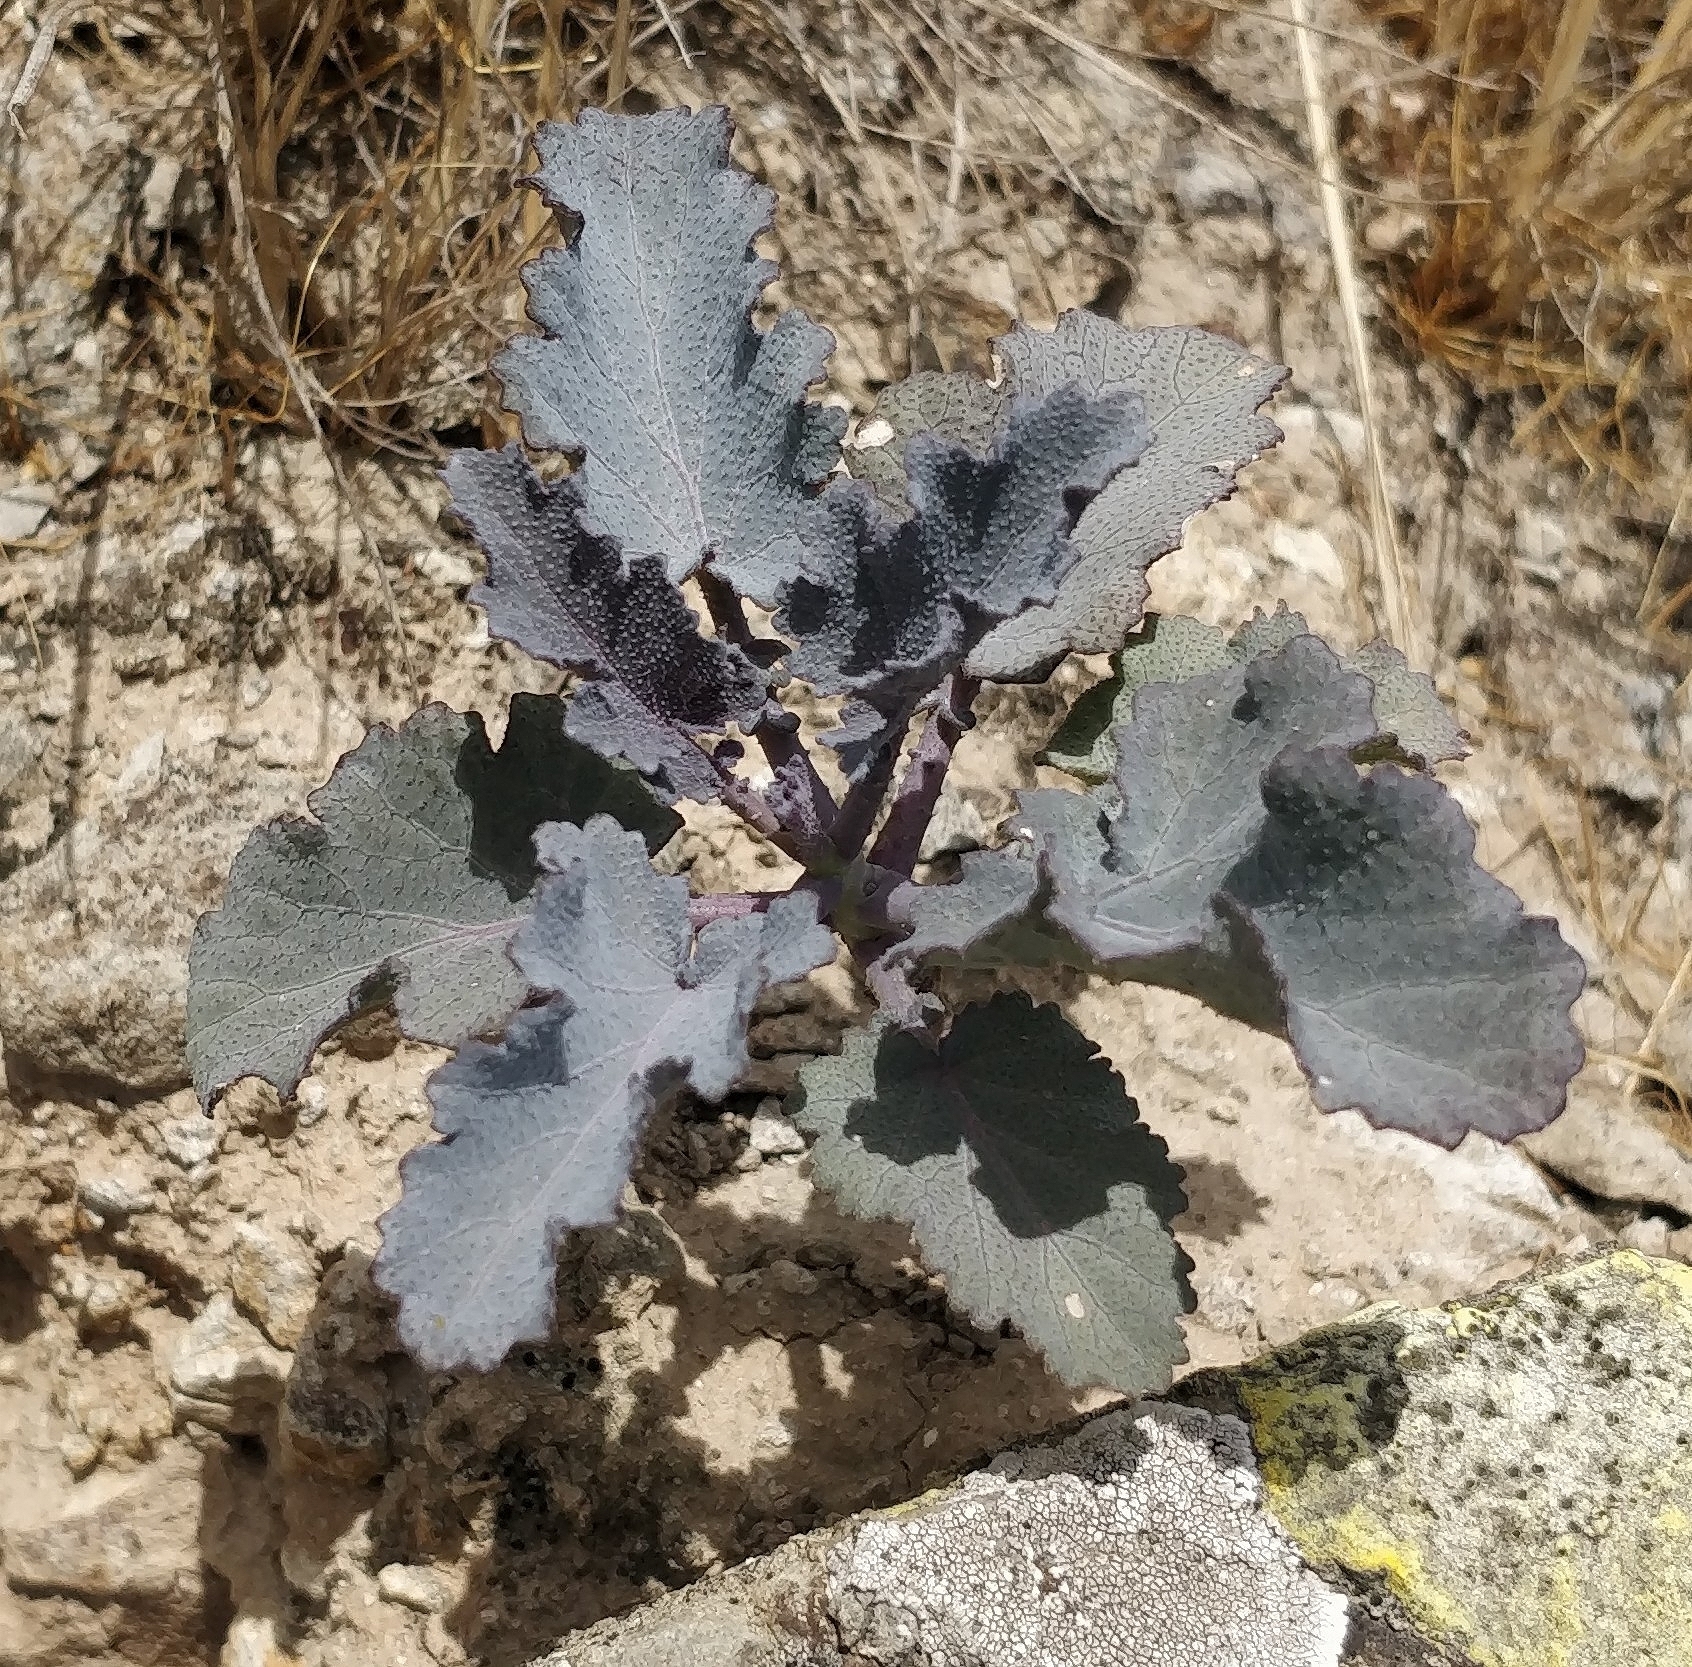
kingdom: Plantae
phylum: Tracheophyta
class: Magnoliopsida
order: Brassicales
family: Brassicaceae
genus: Crambe
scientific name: Crambe fruticosa
